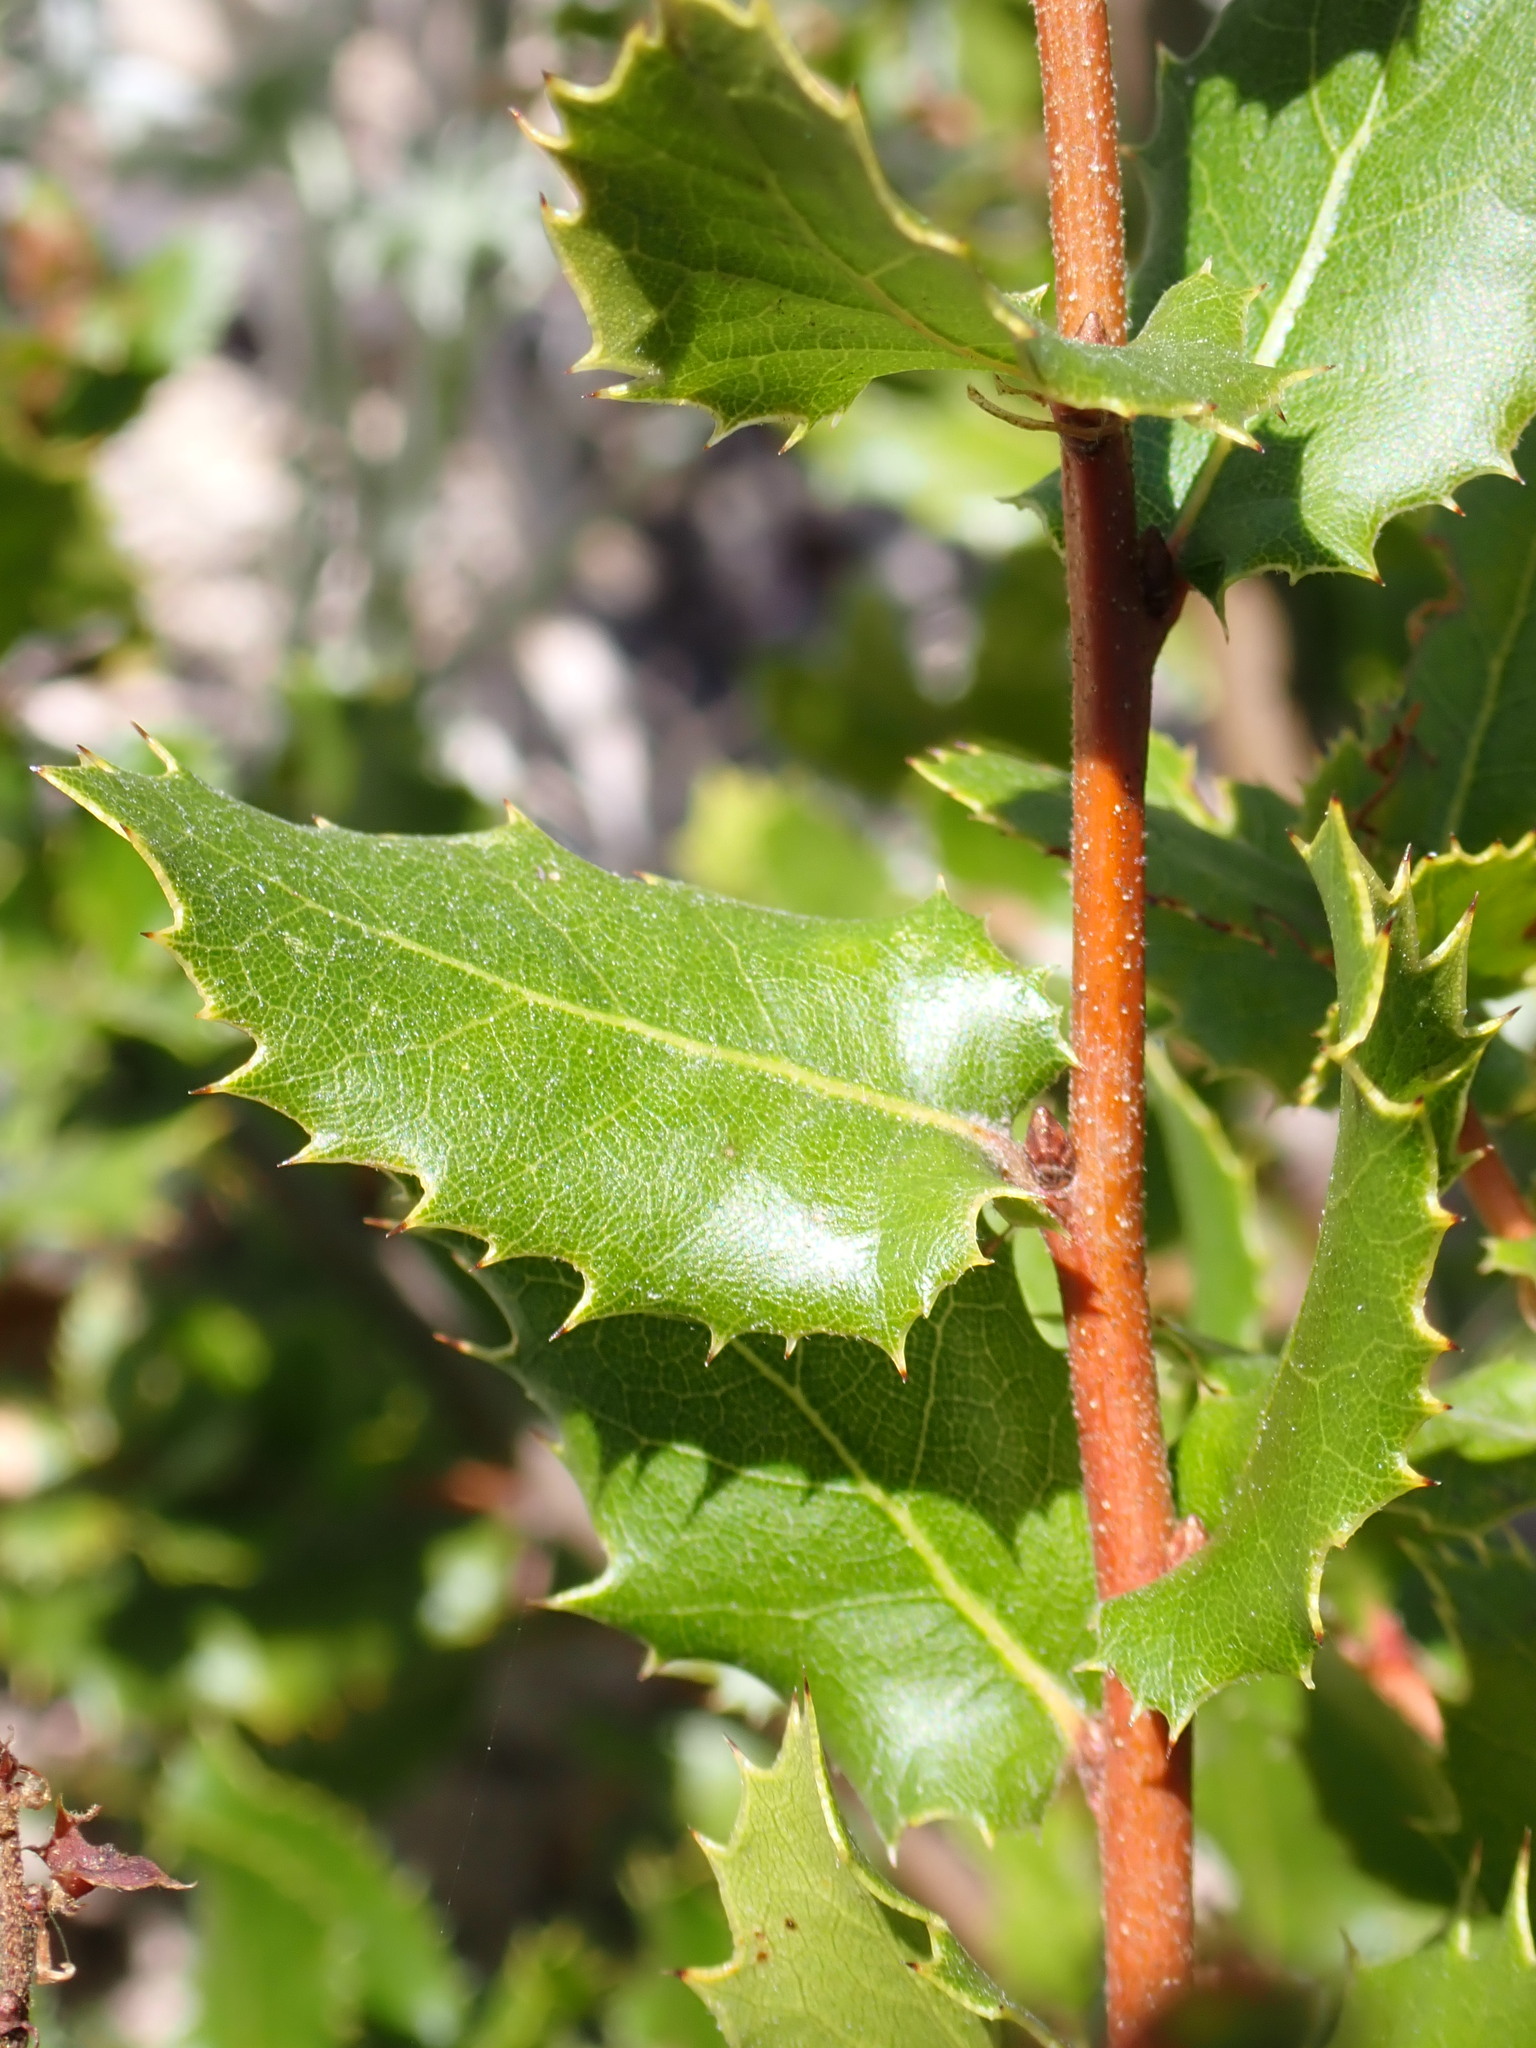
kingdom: Plantae
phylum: Tracheophyta
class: Magnoliopsida
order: Fagales
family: Fagaceae
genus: Quercus
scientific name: Quercus wislizeni
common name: Interior live oak
